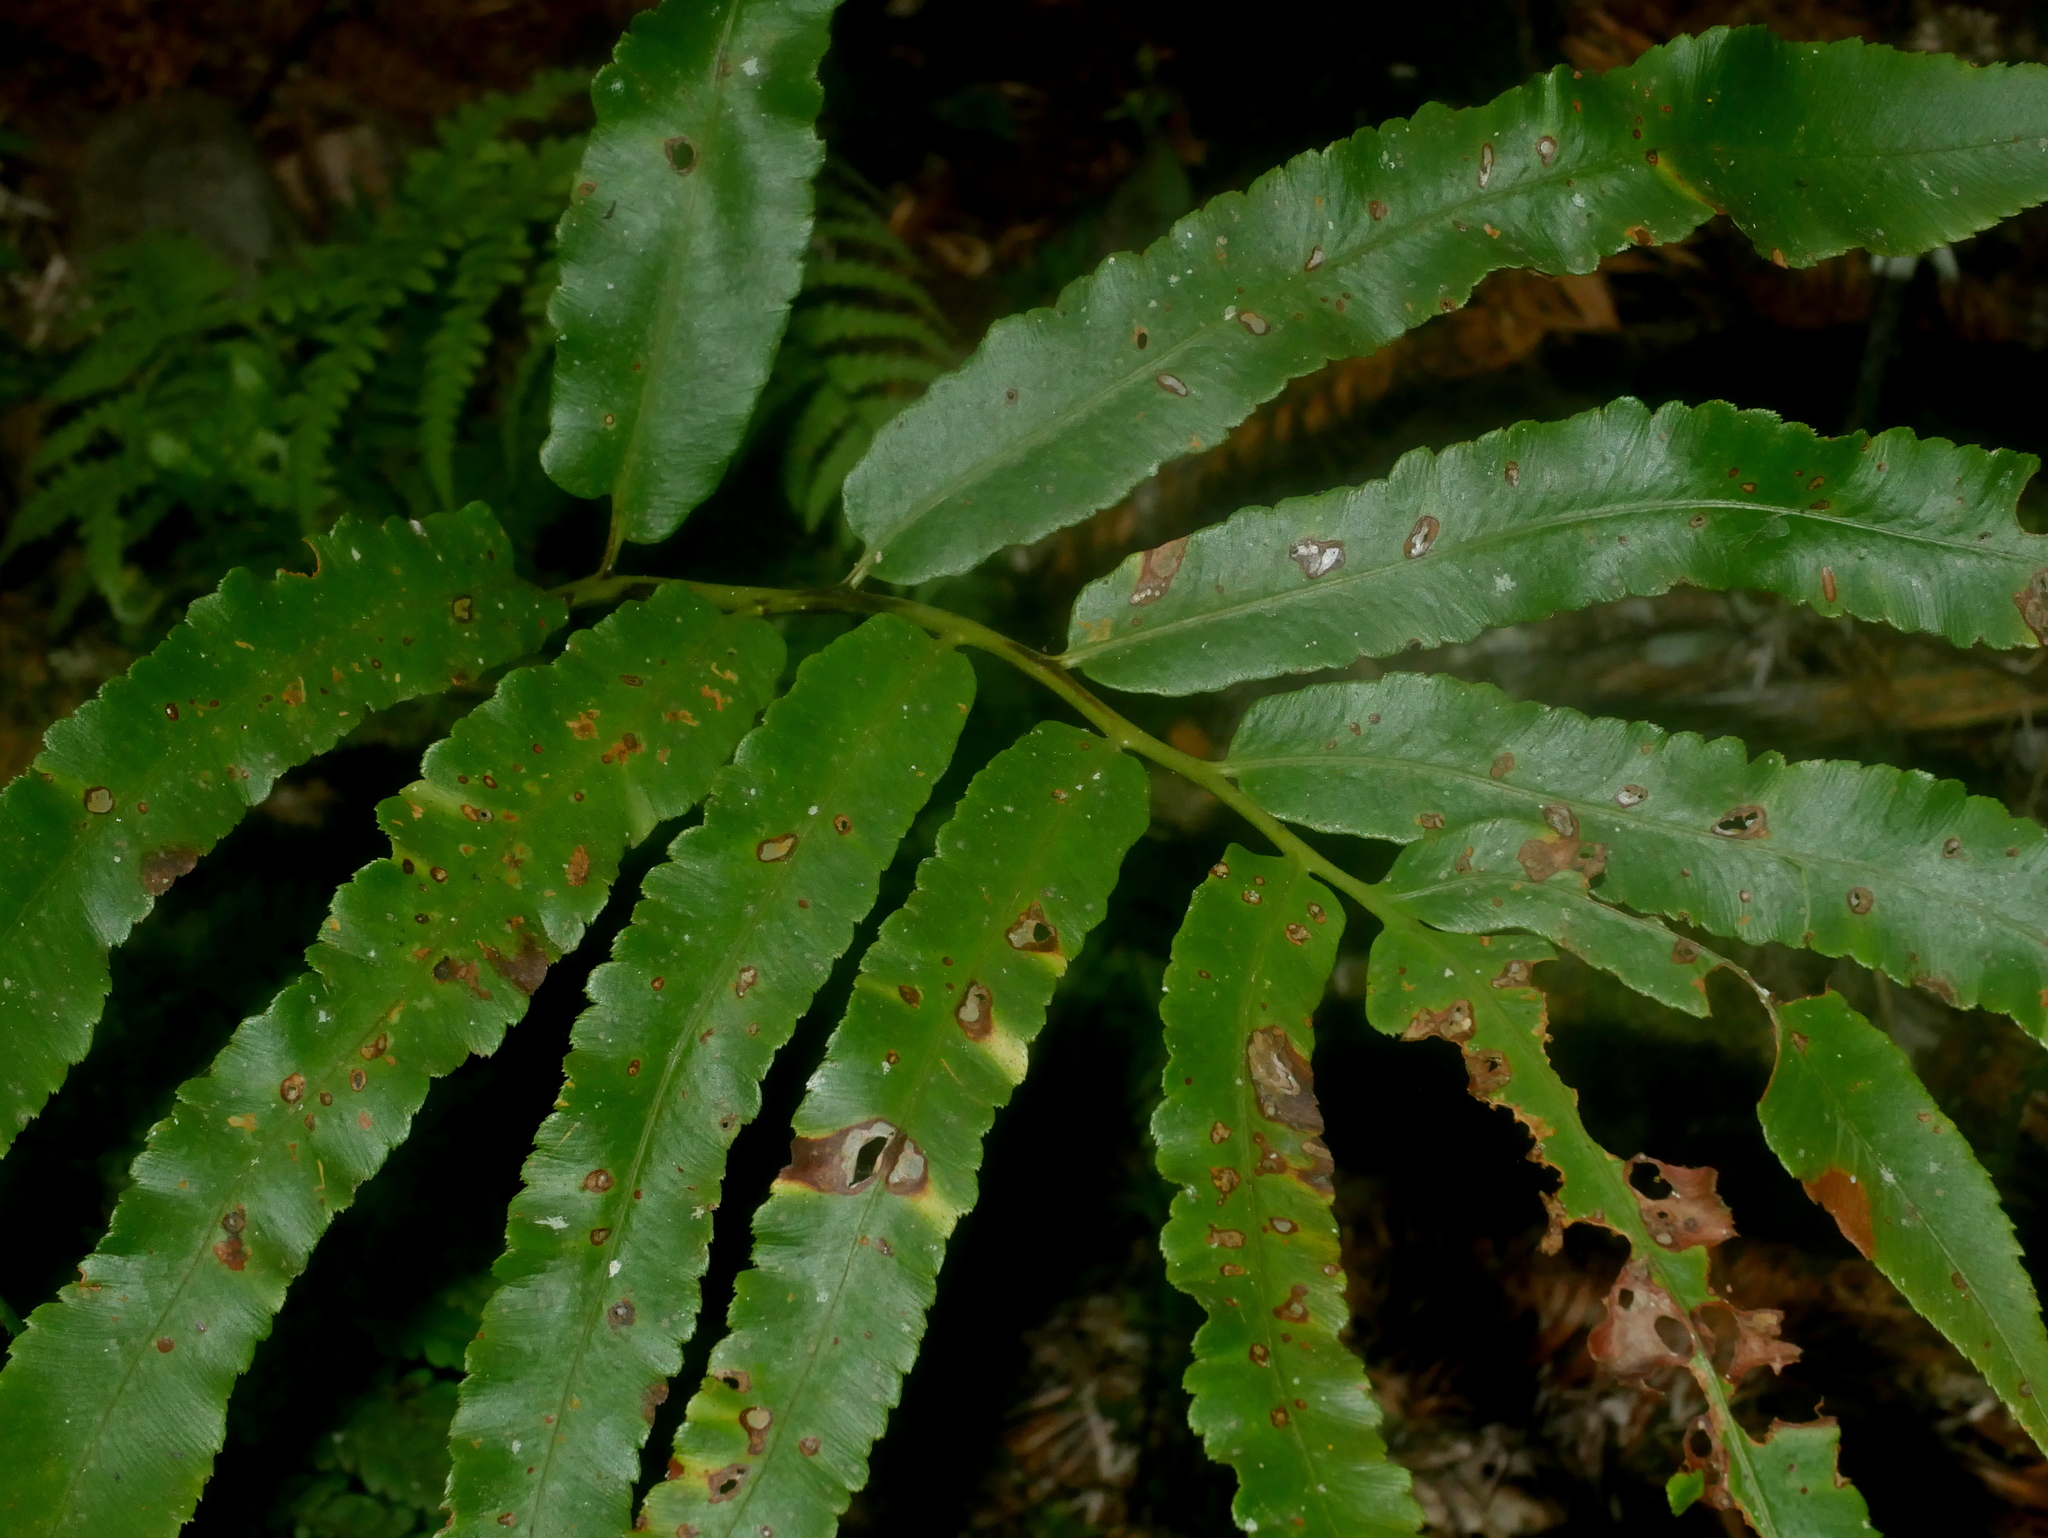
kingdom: Plantae
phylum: Tracheophyta
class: Polypodiopsida
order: Polypodiales
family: Dryopteridaceae
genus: Dryopteris
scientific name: Dryopteris enneaphylla
